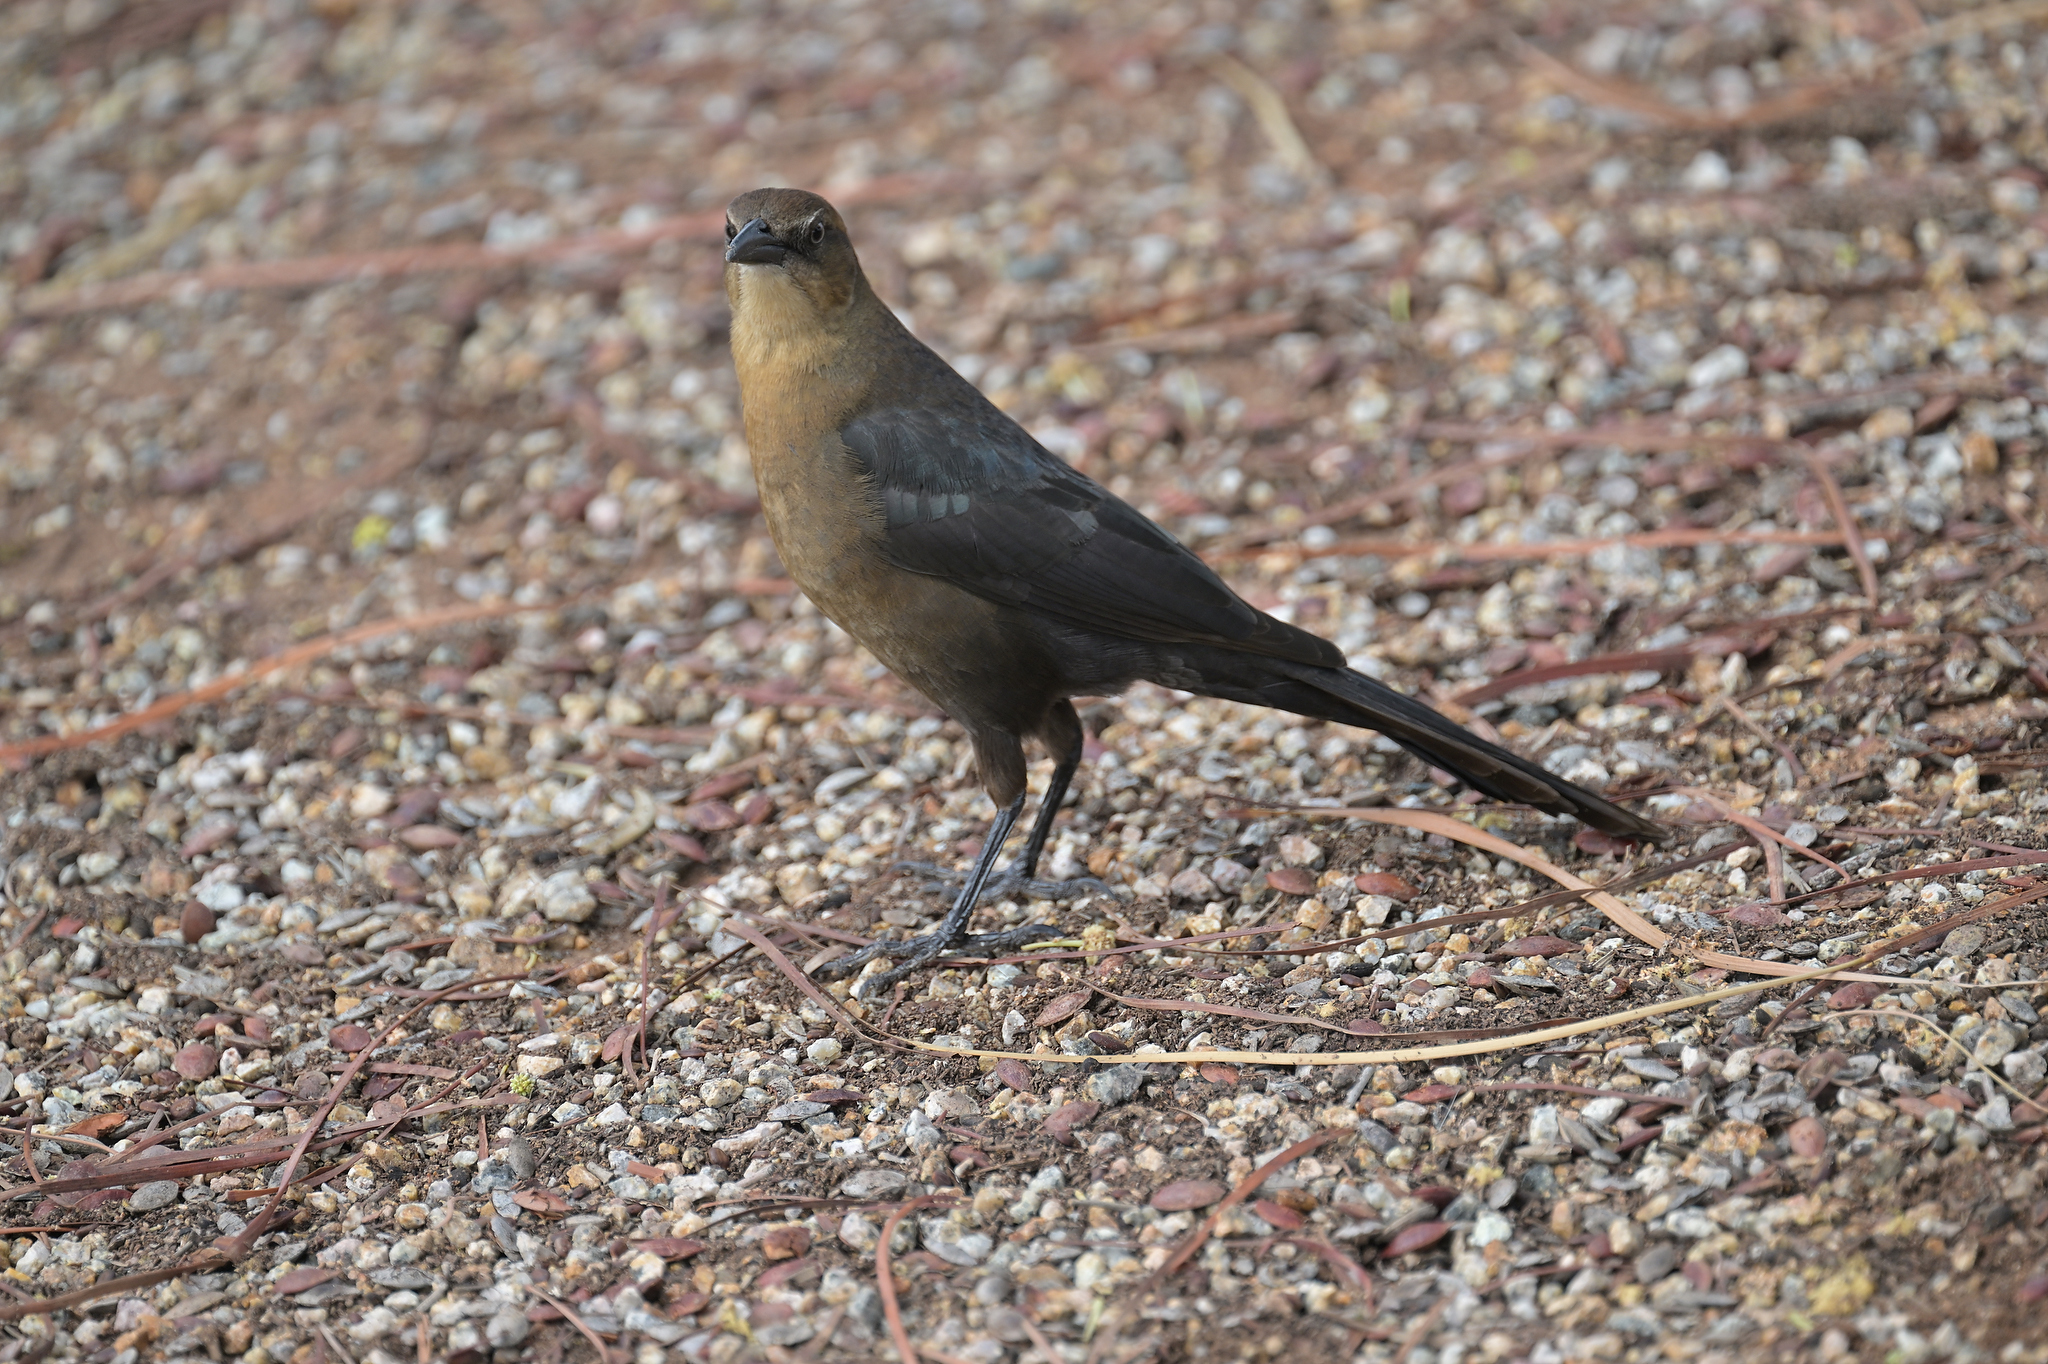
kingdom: Animalia
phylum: Chordata
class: Aves
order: Passeriformes
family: Icteridae
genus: Quiscalus
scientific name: Quiscalus mexicanus
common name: Great-tailed grackle
